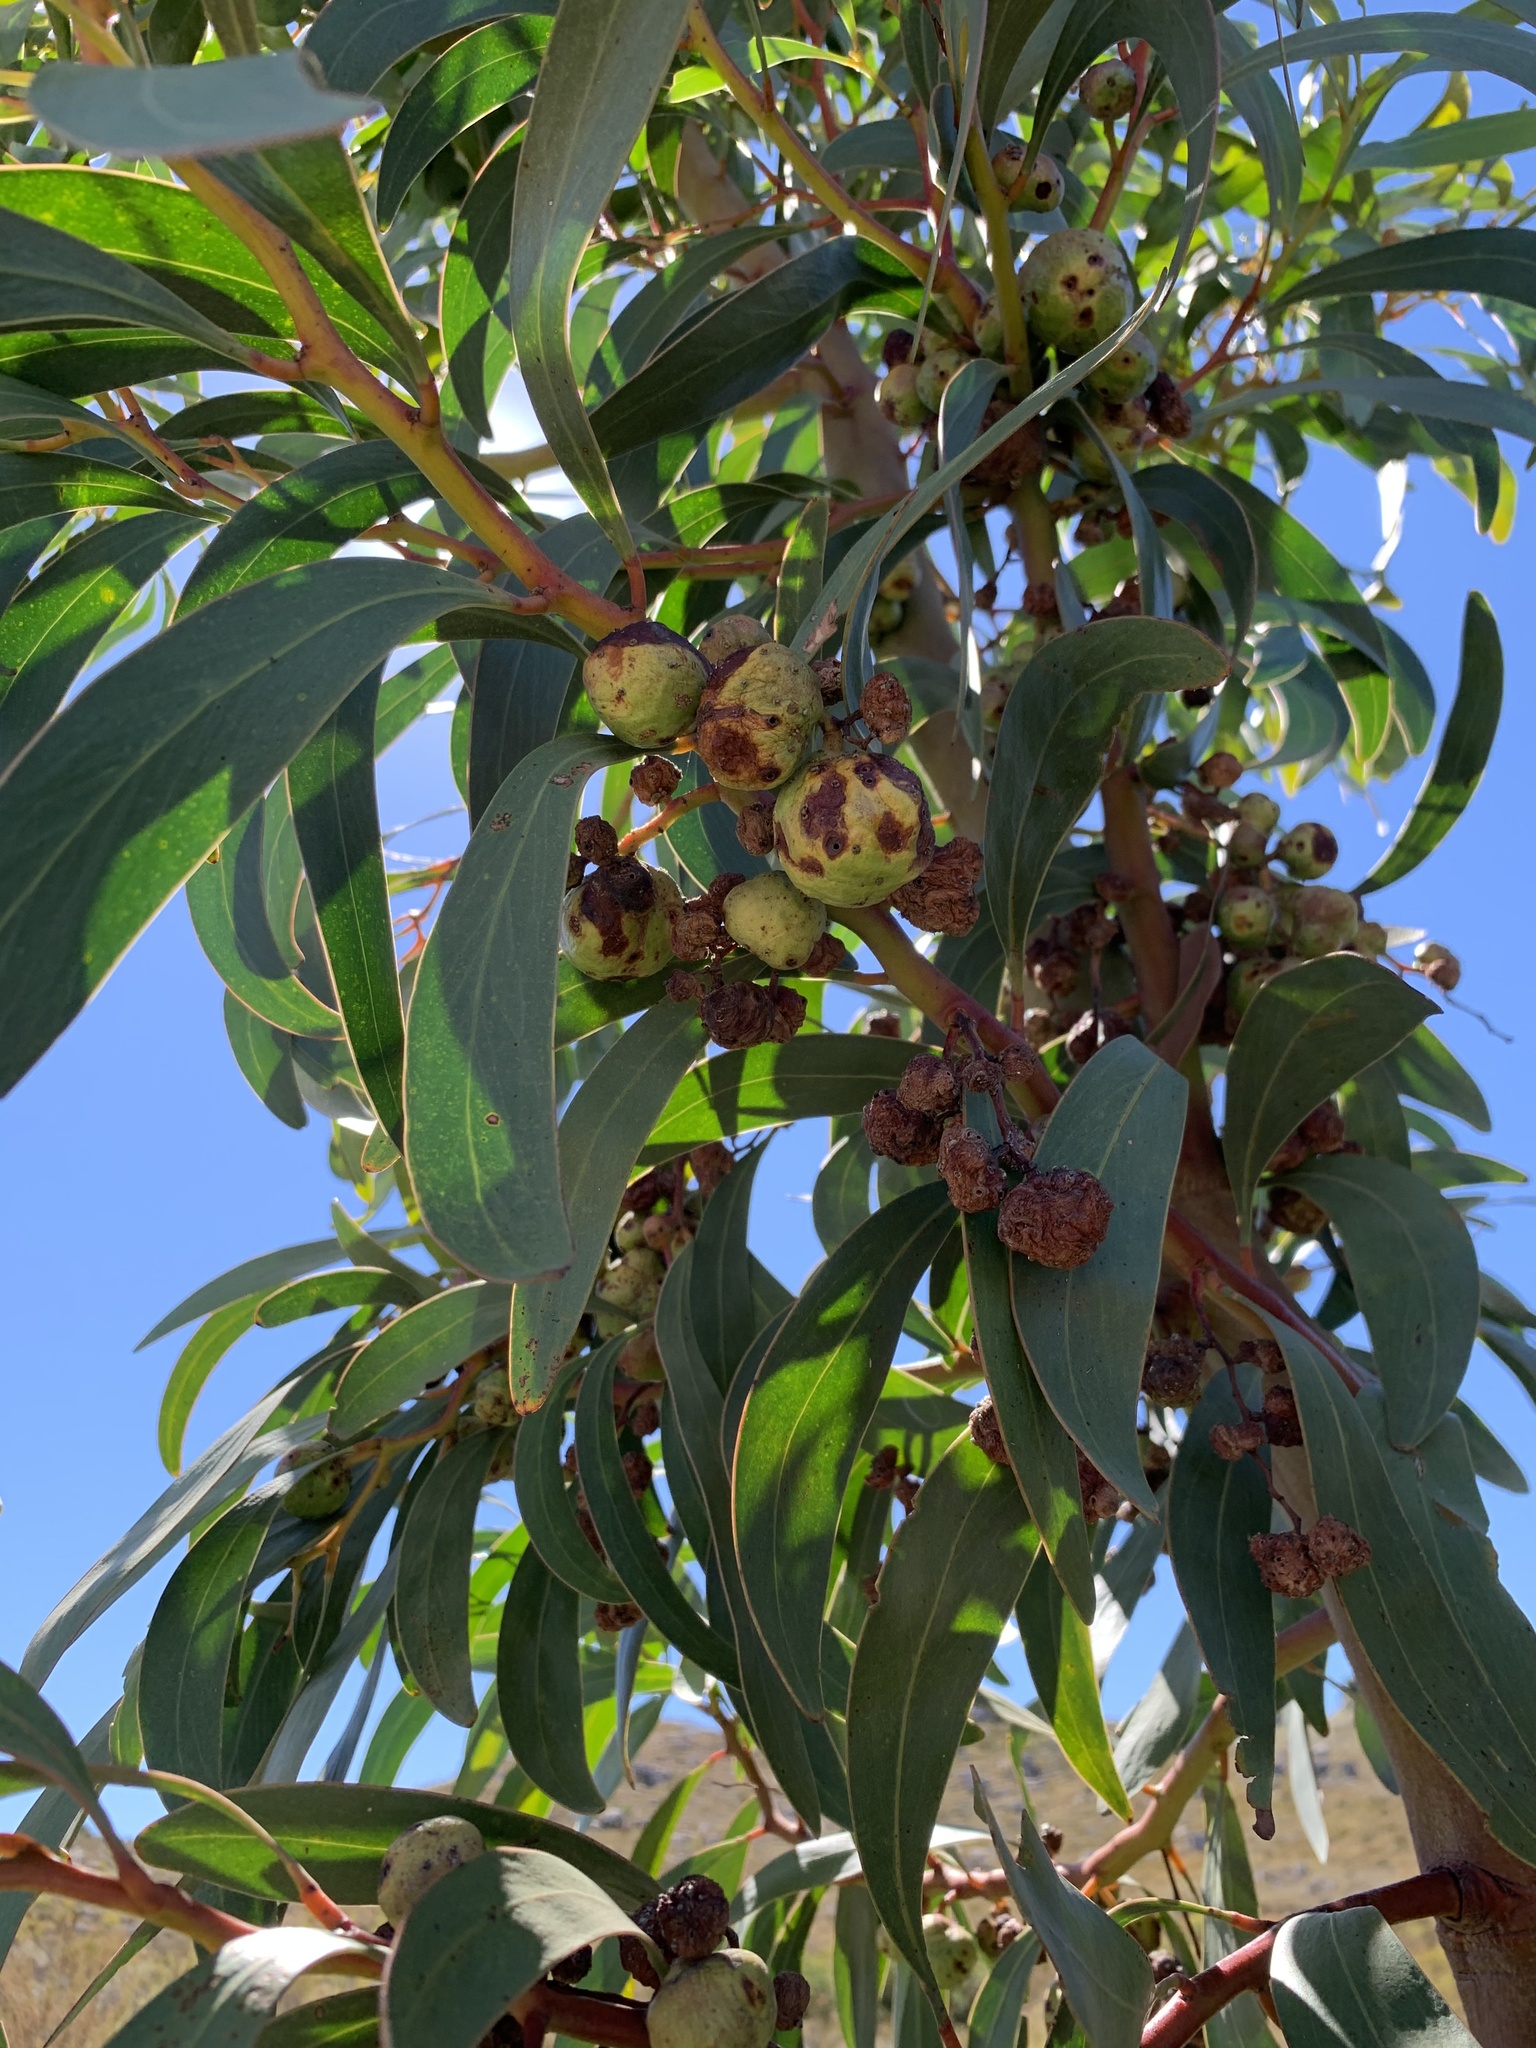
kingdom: Plantae
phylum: Tracheophyta
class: Magnoliopsida
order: Fabales
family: Fabaceae
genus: Acacia
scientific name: Acacia pycnantha
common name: Golden wattle
